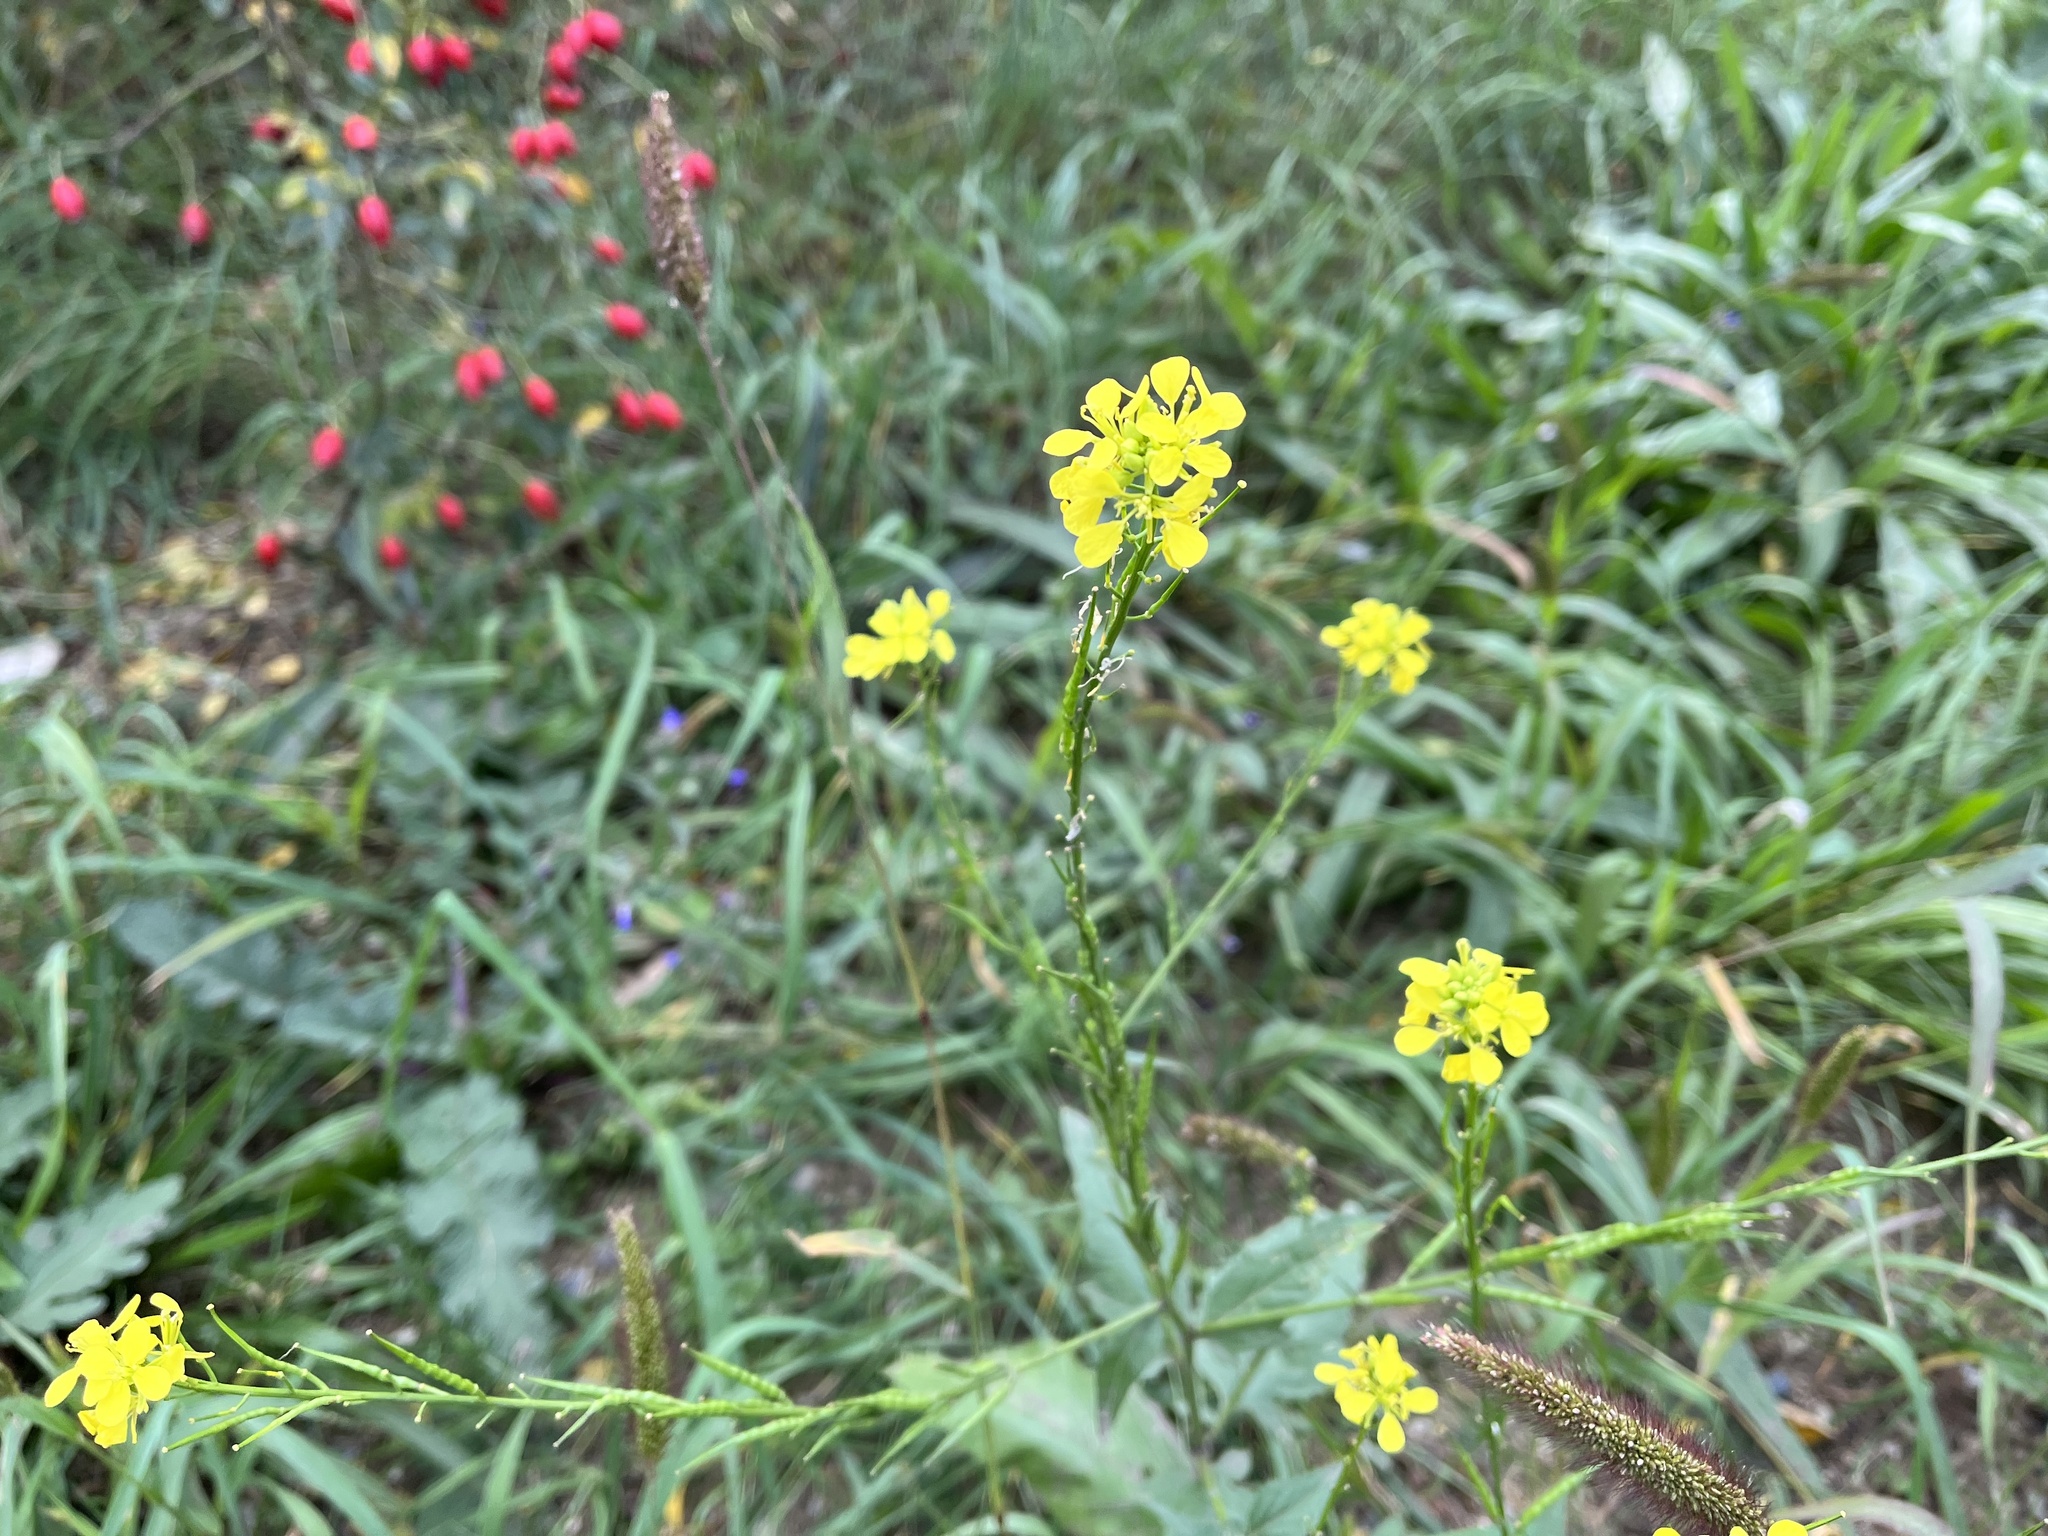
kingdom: Plantae
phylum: Tracheophyta
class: Magnoliopsida
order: Brassicales
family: Brassicaceae
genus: Sinapis
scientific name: Sinapis arvensis
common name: Charlock
